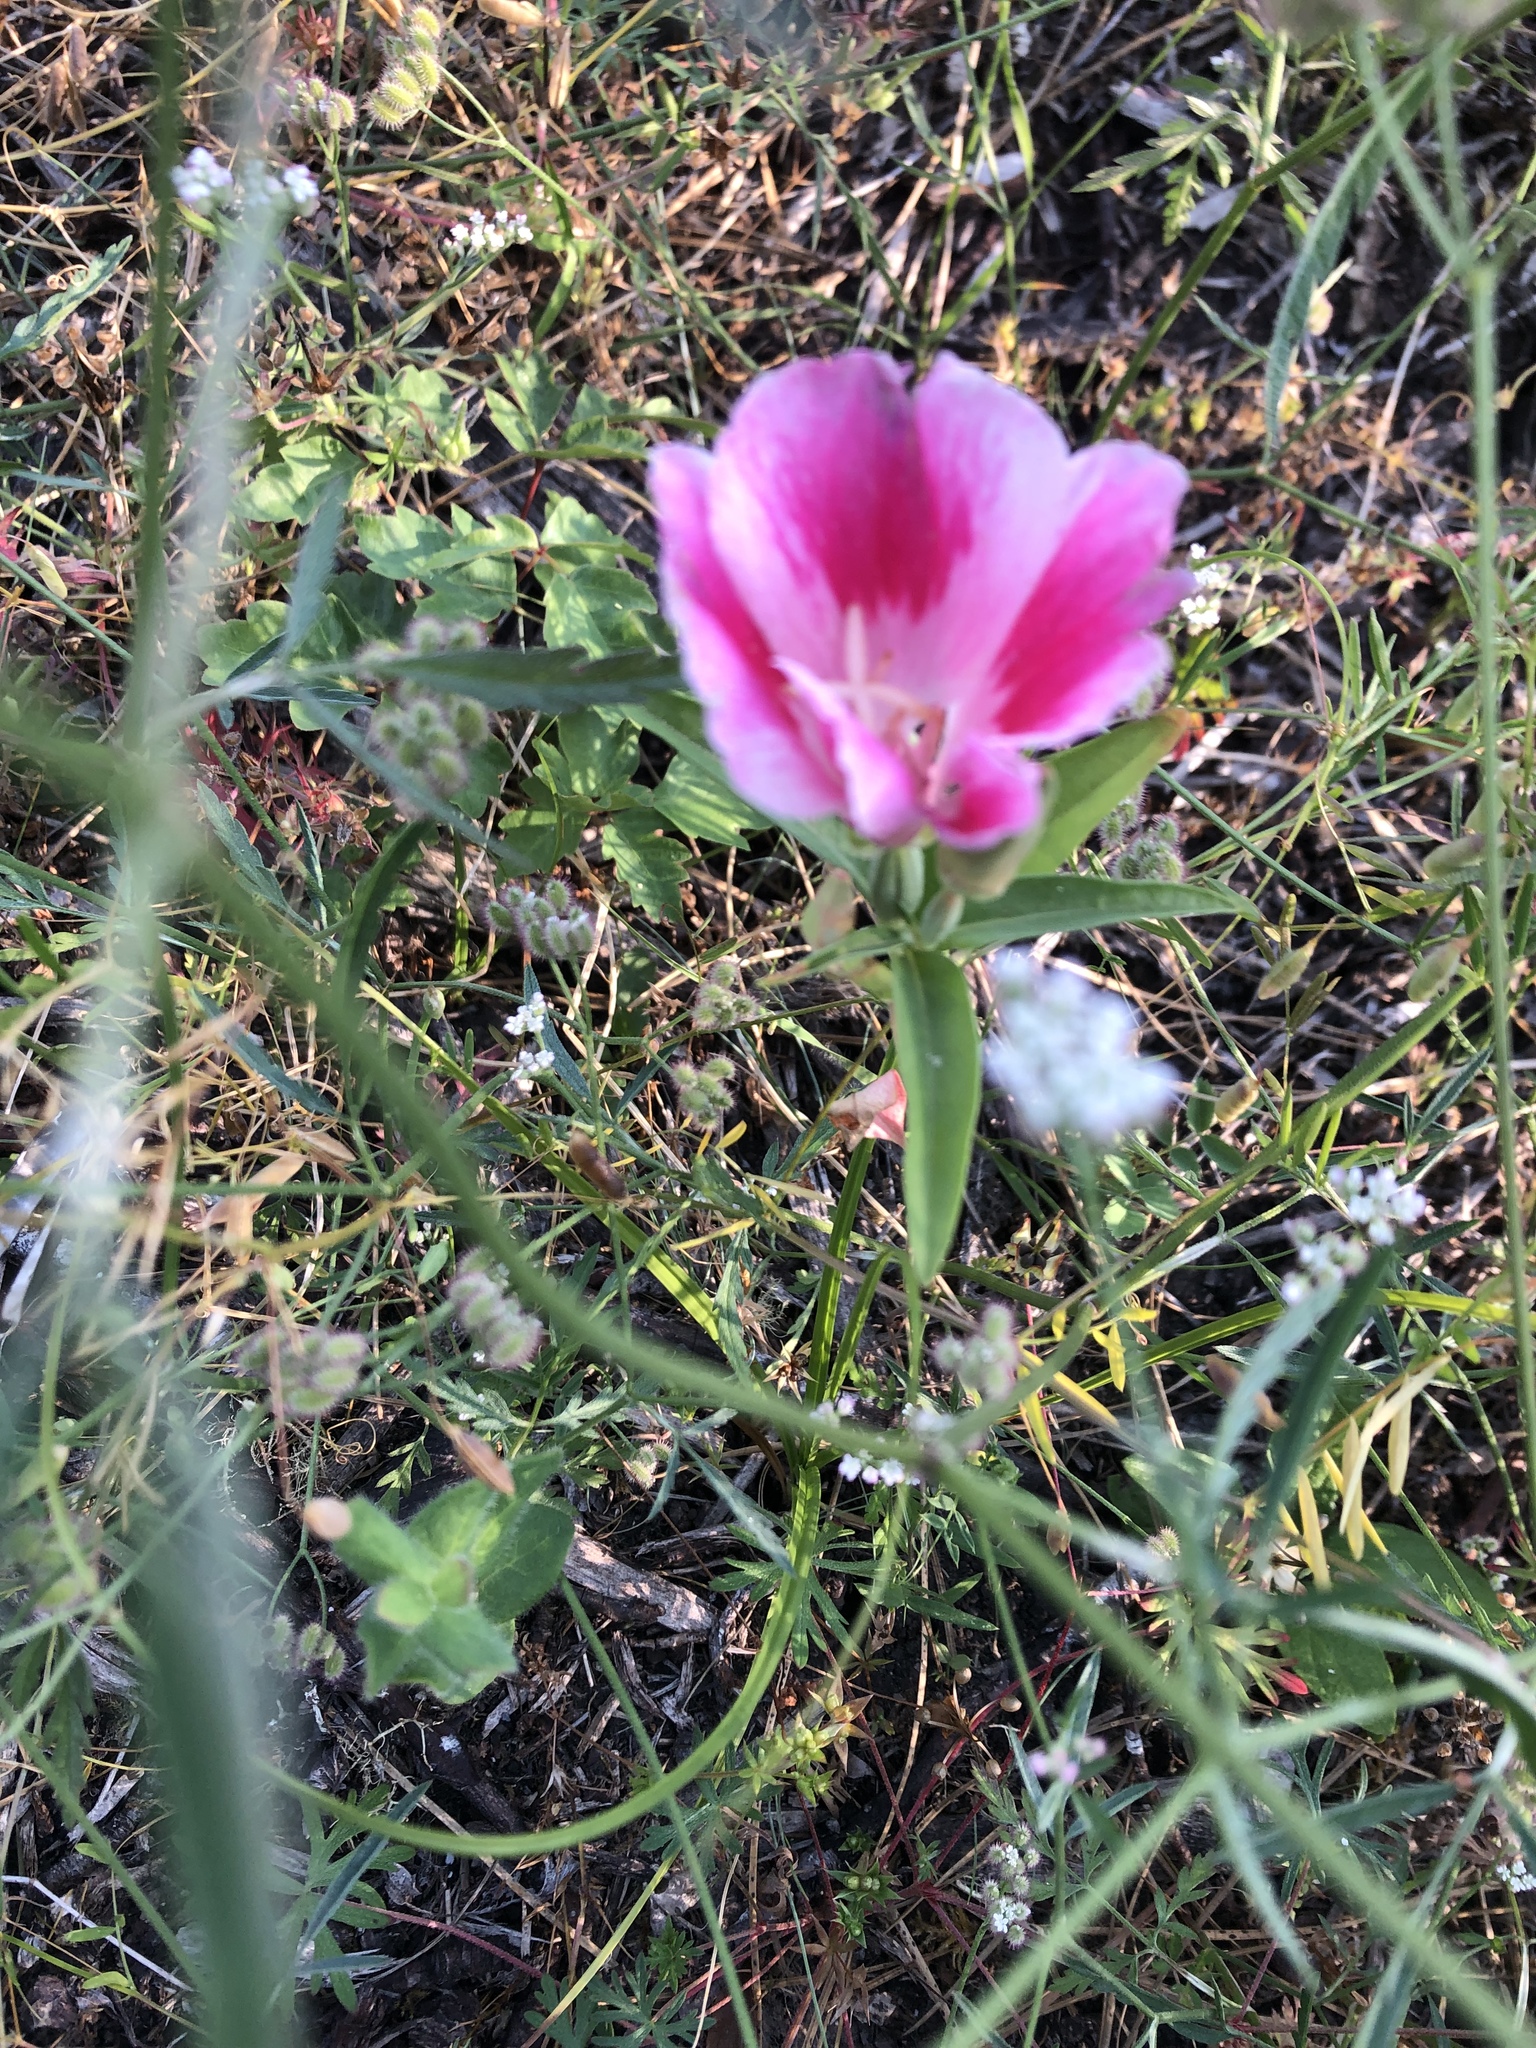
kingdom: Plantae
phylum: Tracheophyta
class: Magnoliopsida
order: Myrtales
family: Onagraceae
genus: Clarkia
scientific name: Clarkia amoena
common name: Godetia
